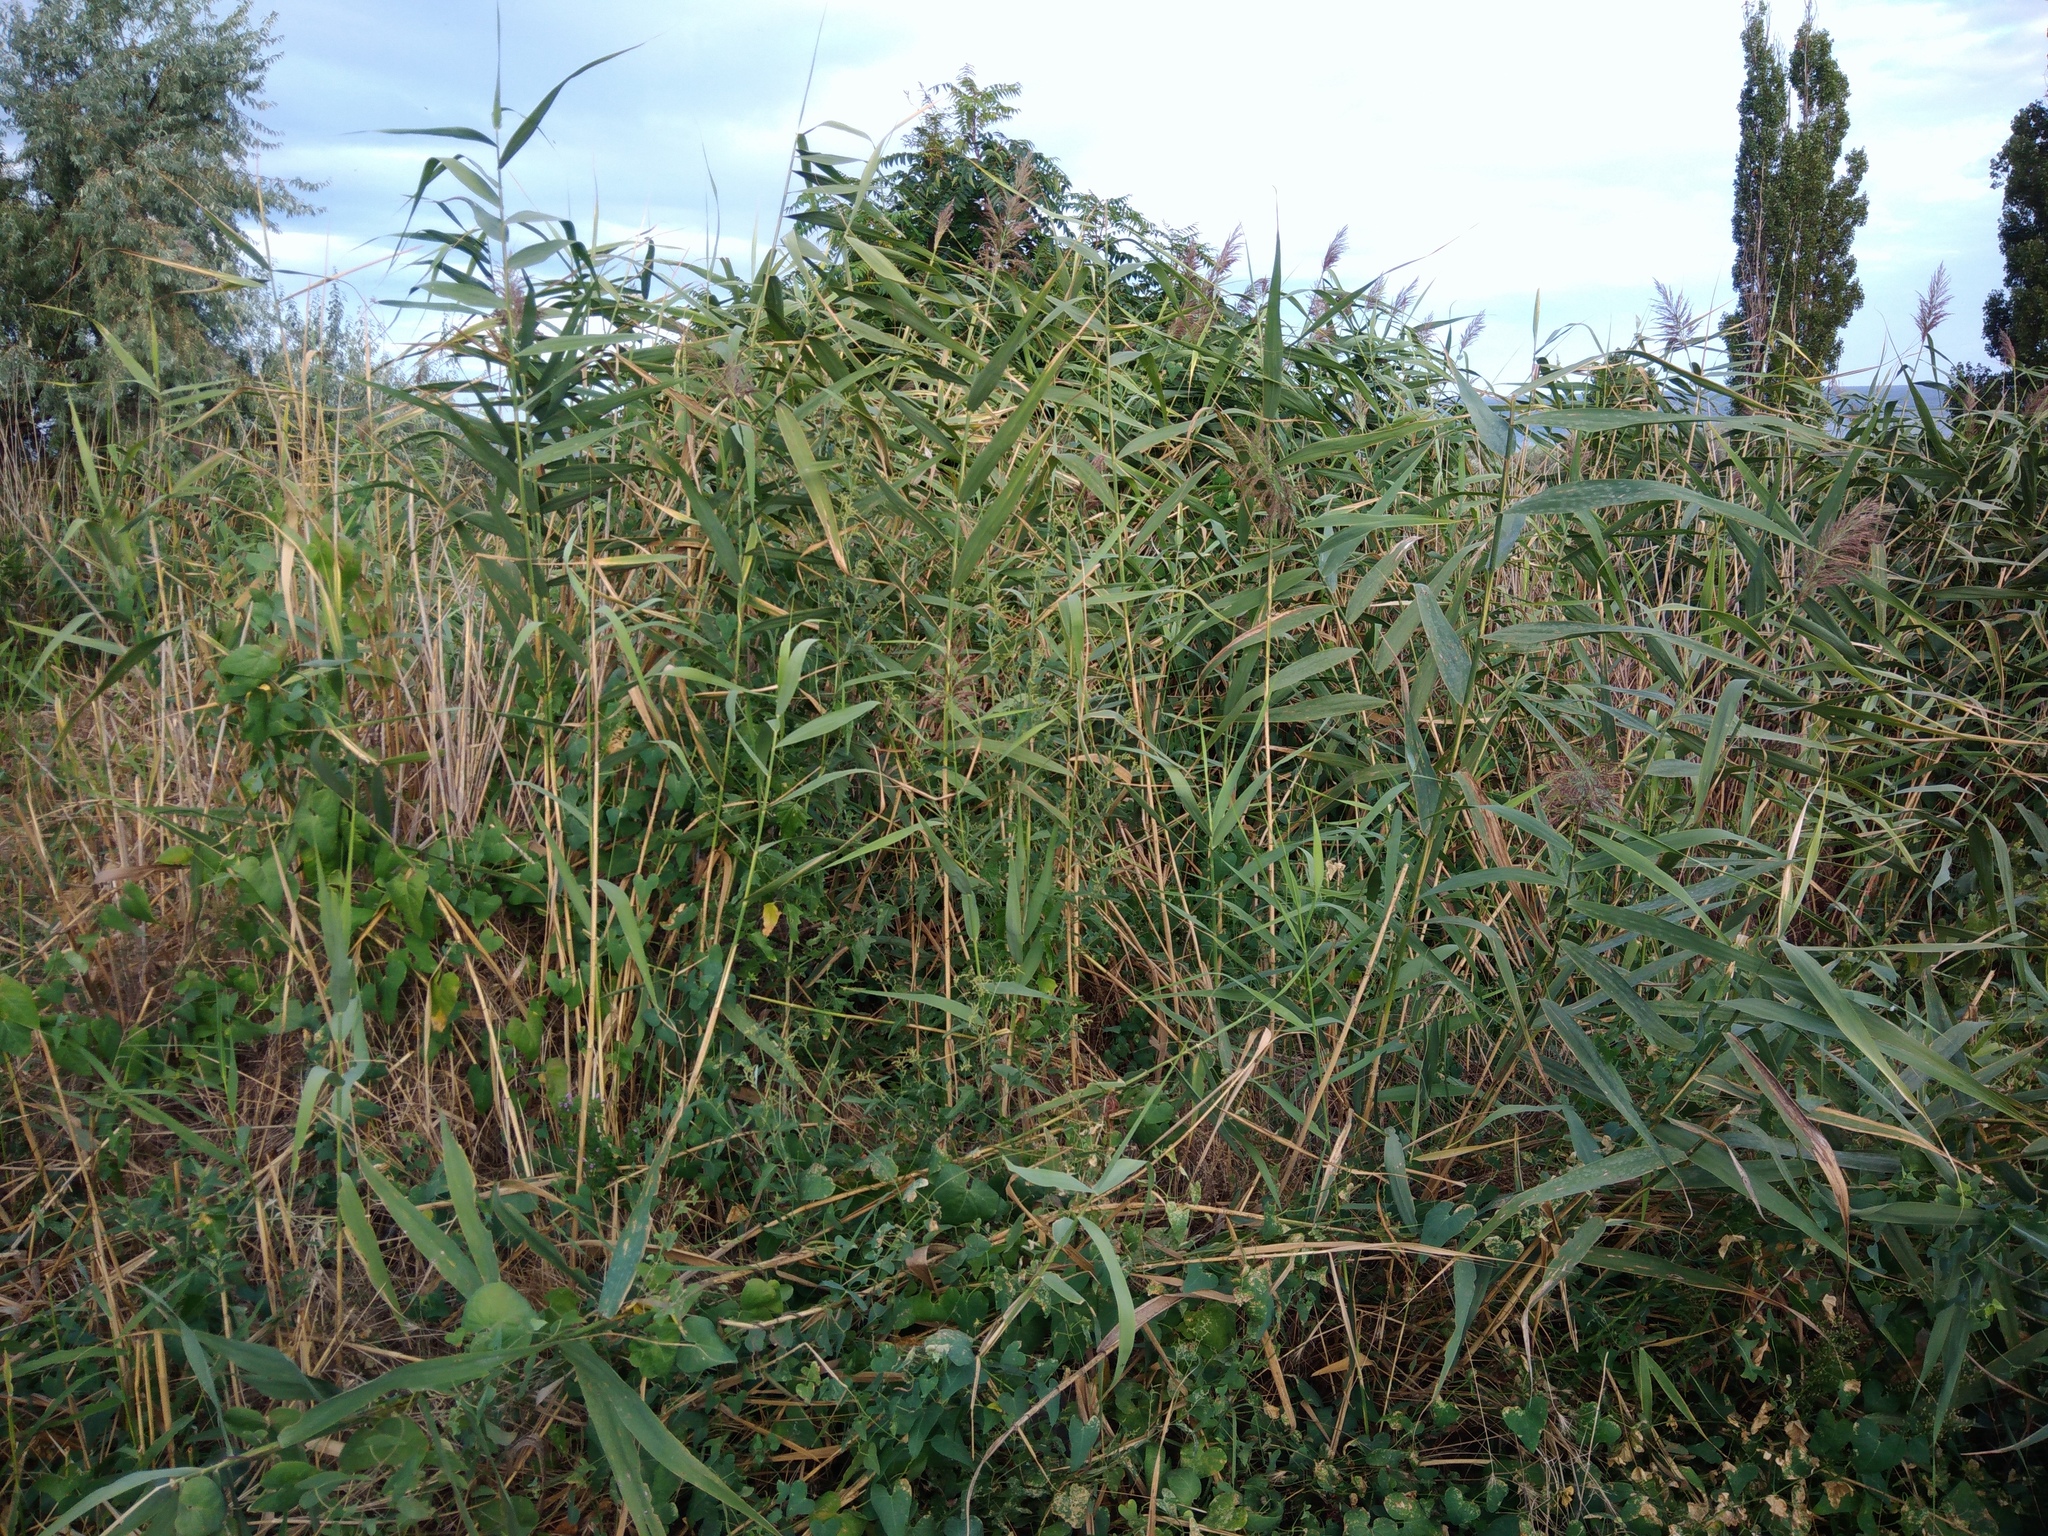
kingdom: Plantae
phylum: Tracheophyta
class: Liliopsida
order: Poales
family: Poaceae
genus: Phragmites
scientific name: Phragmites australis
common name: Common reed
